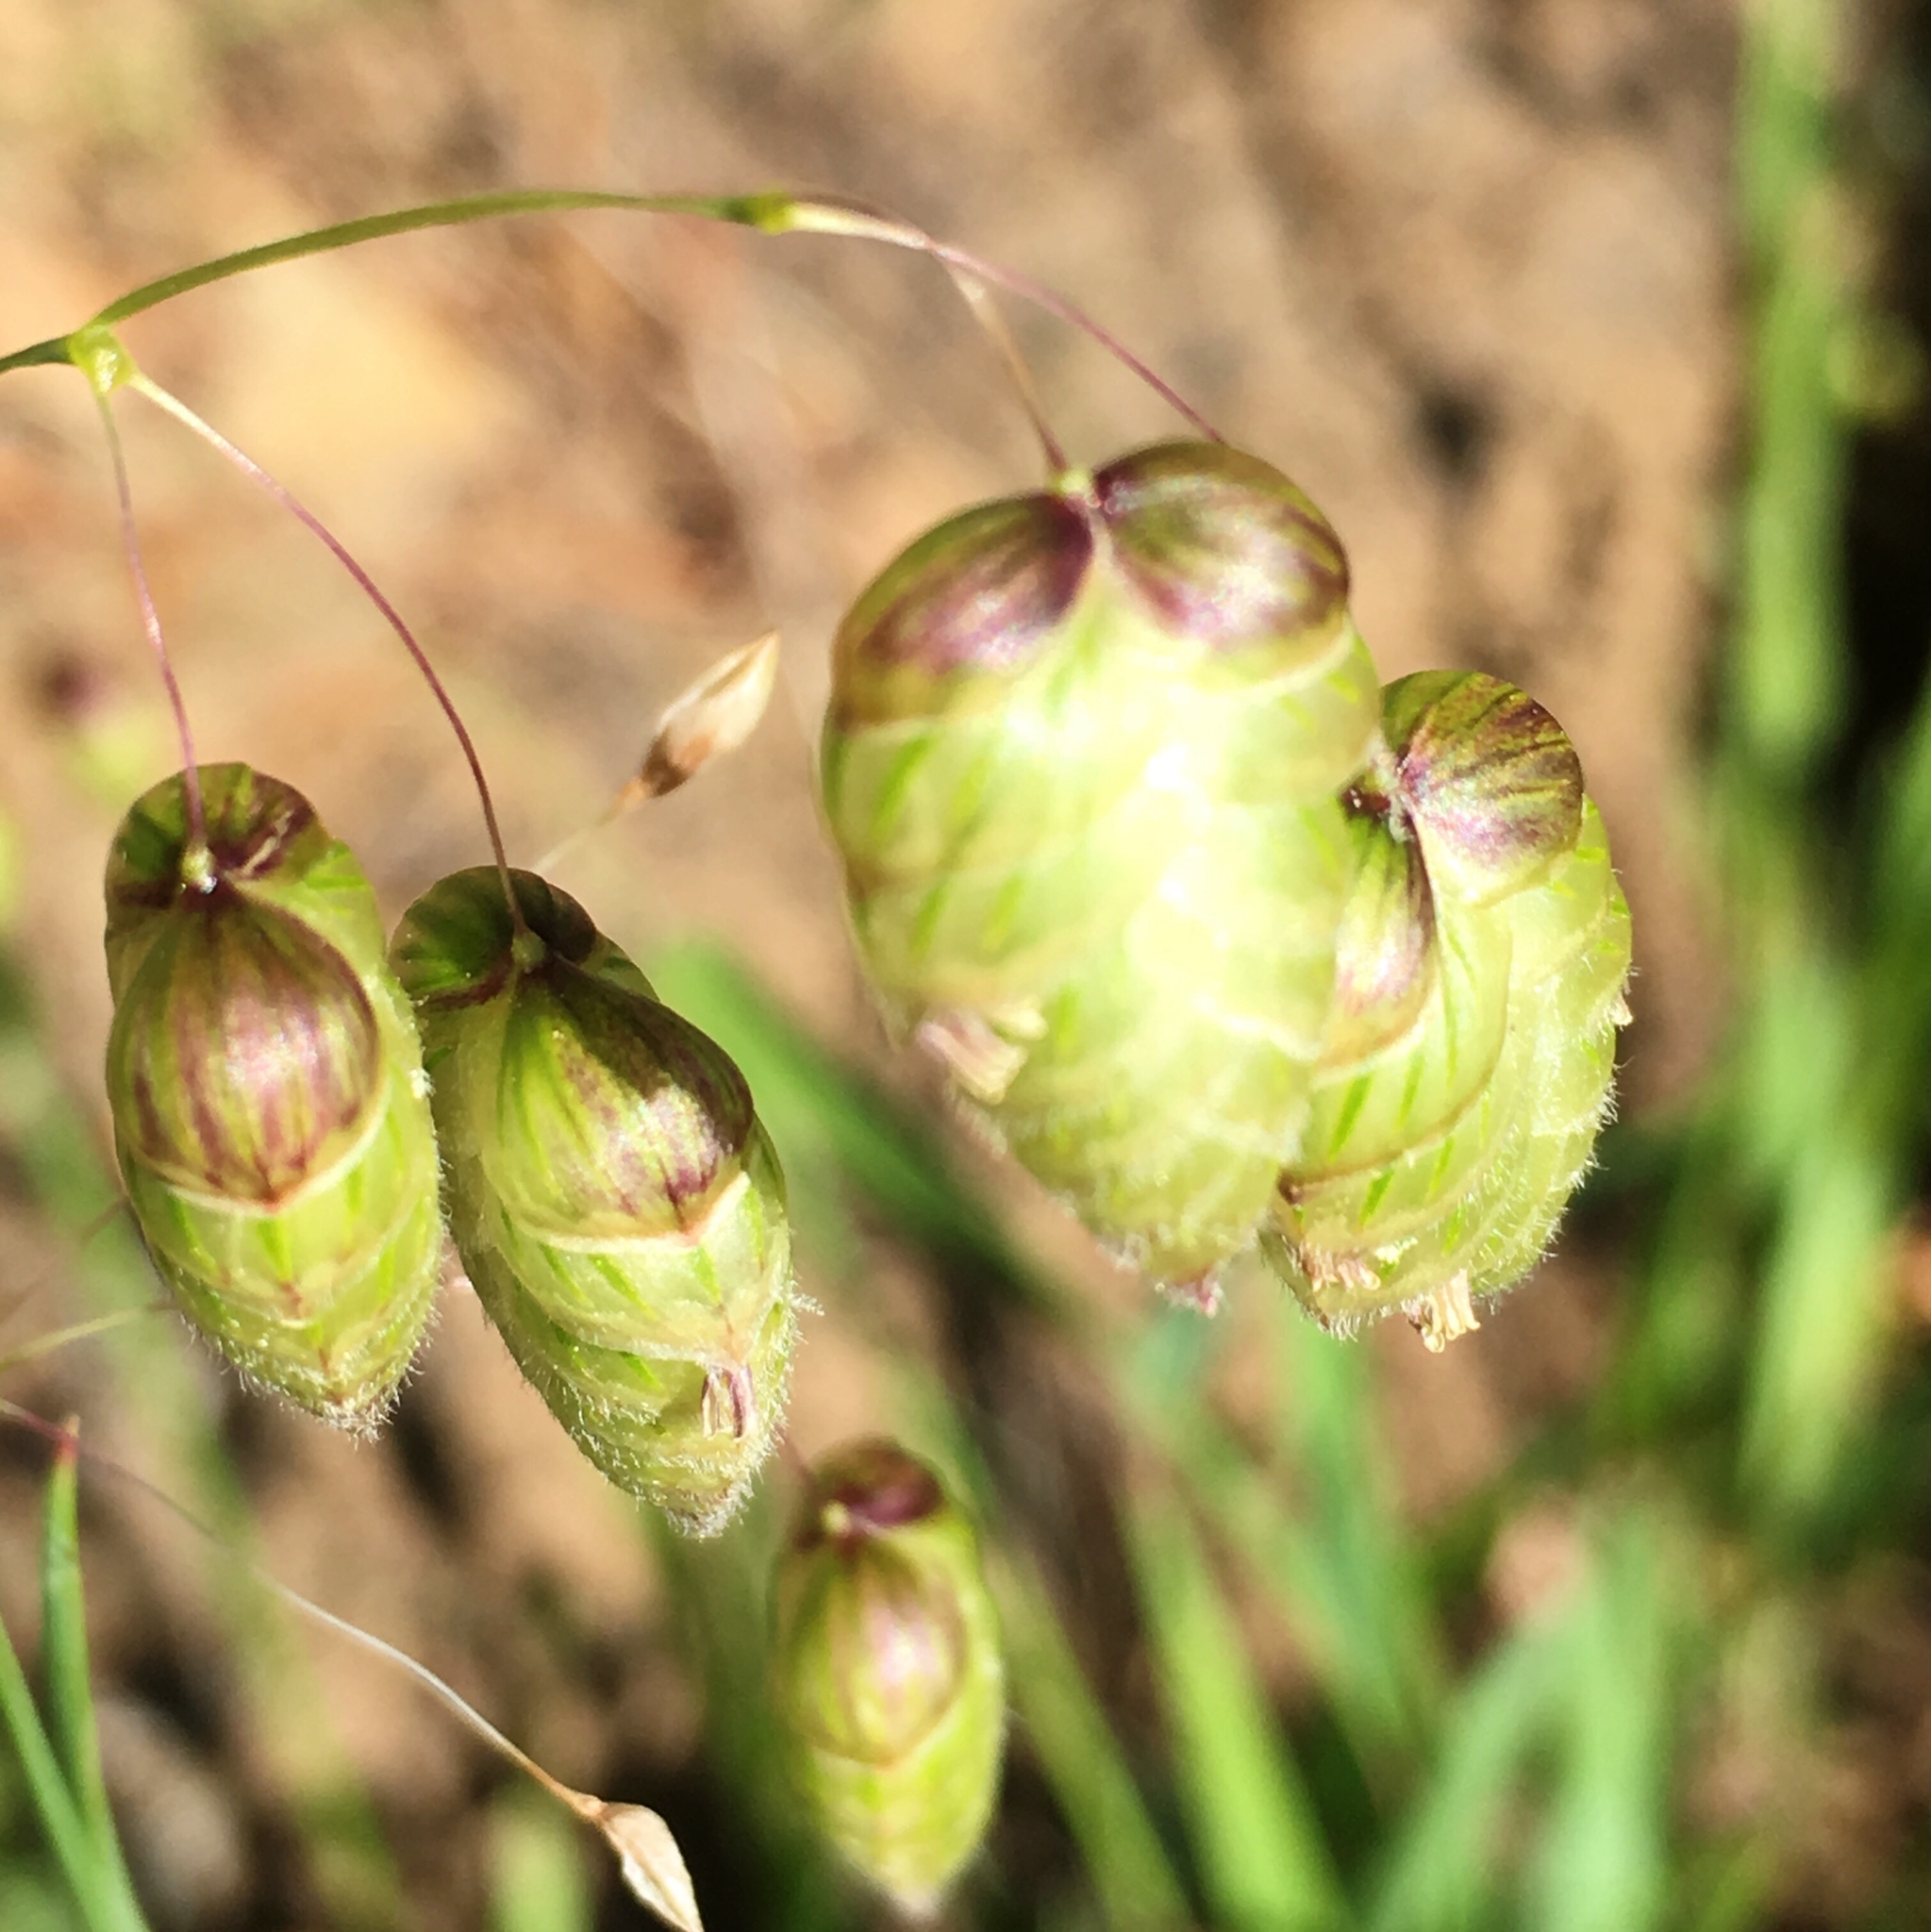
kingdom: Plantae
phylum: Tracheophyta
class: Liliopsida
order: Poales
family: Poaceae
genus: Briza
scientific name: Briza maxima
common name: Big quakinggrass
